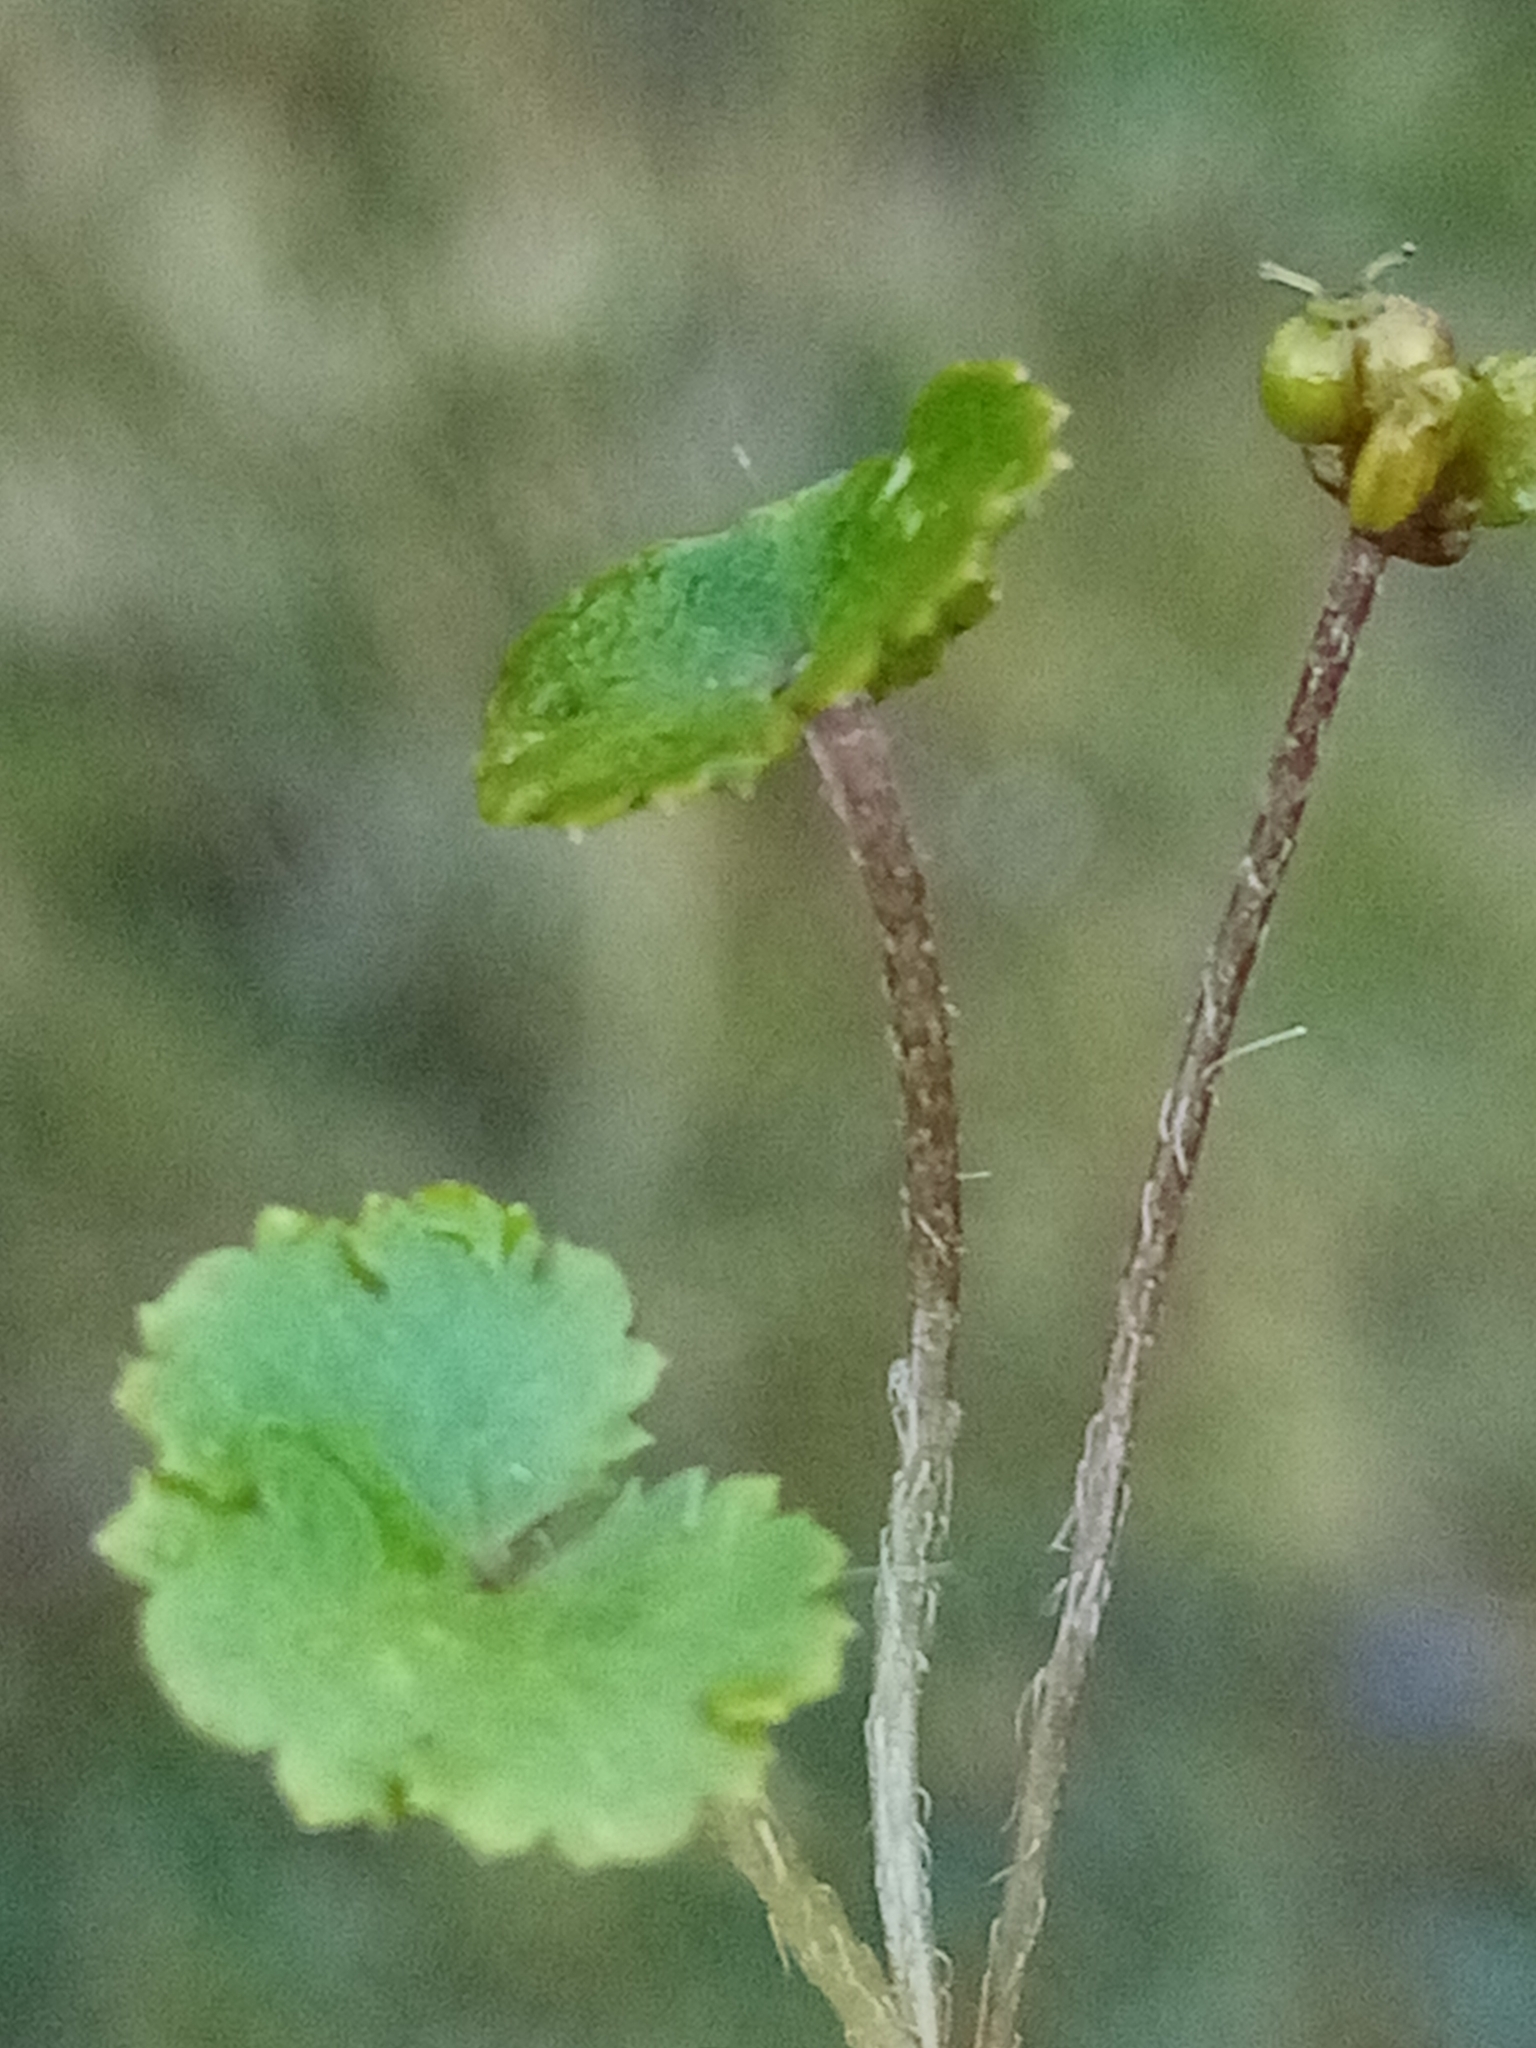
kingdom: Plantae
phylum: Tracheophyta
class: Magnoliopsida
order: Apiales
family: Araliaceae
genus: Hydrocotyle
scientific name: Hydrocotyle novae-zeelandiae
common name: New zealand pennywort
